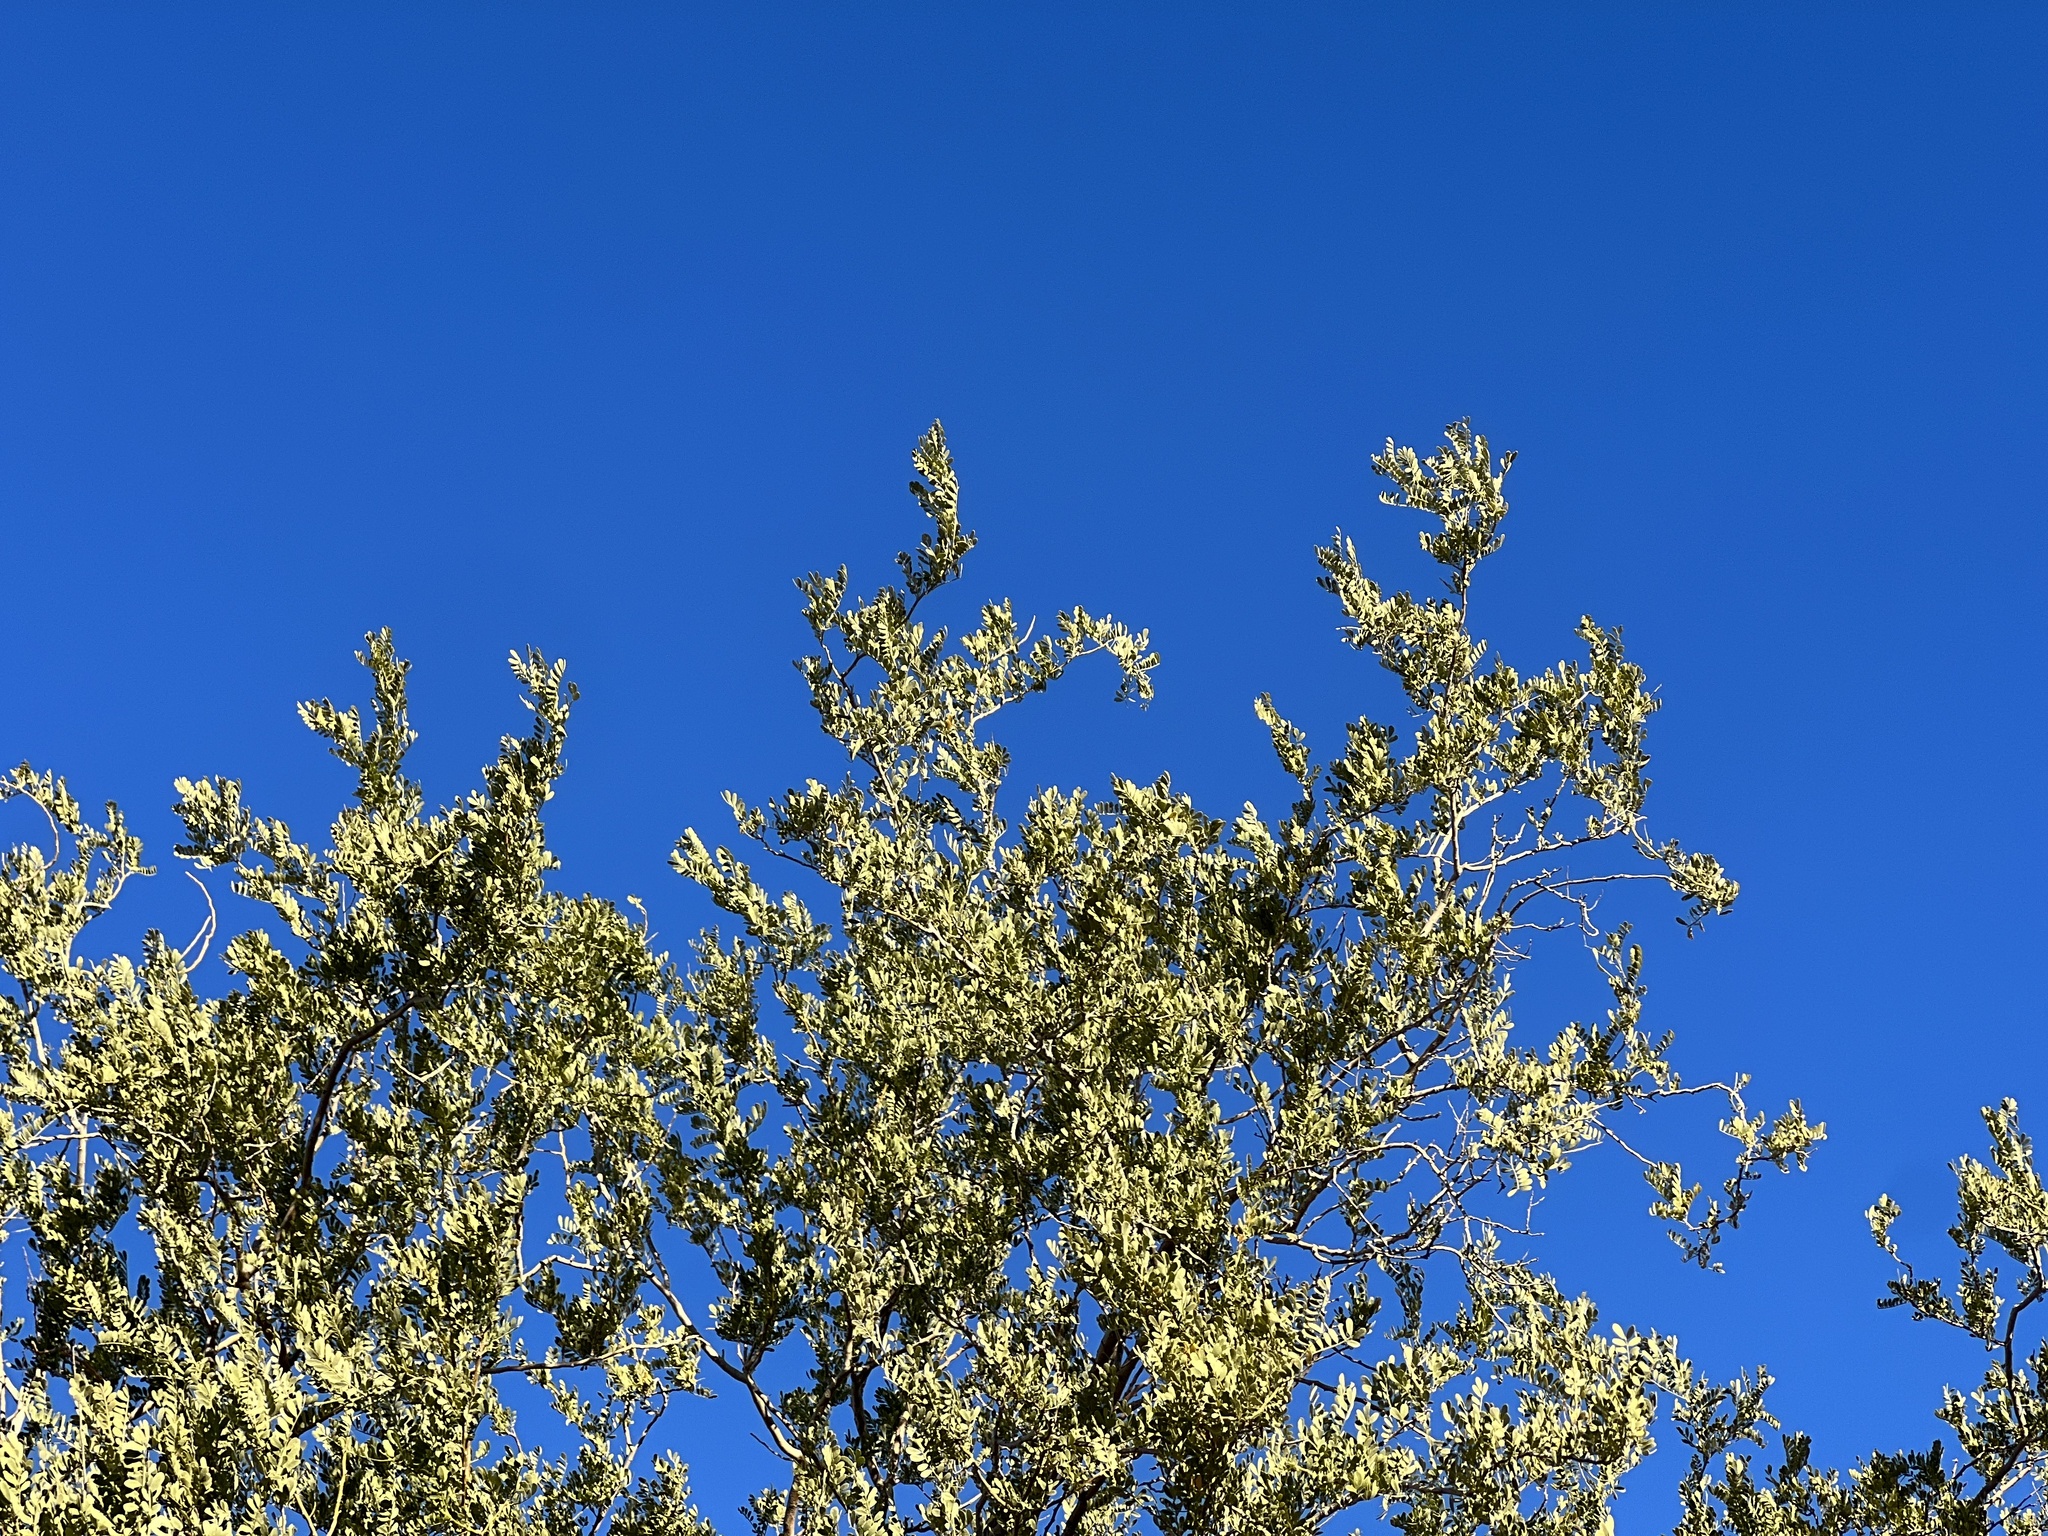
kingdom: Plantae
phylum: Tracheophyta
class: Magnoliopsida
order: Fabales
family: Fabaceae
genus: Olneya
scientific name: Olneya tesota
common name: Desert ironwood
